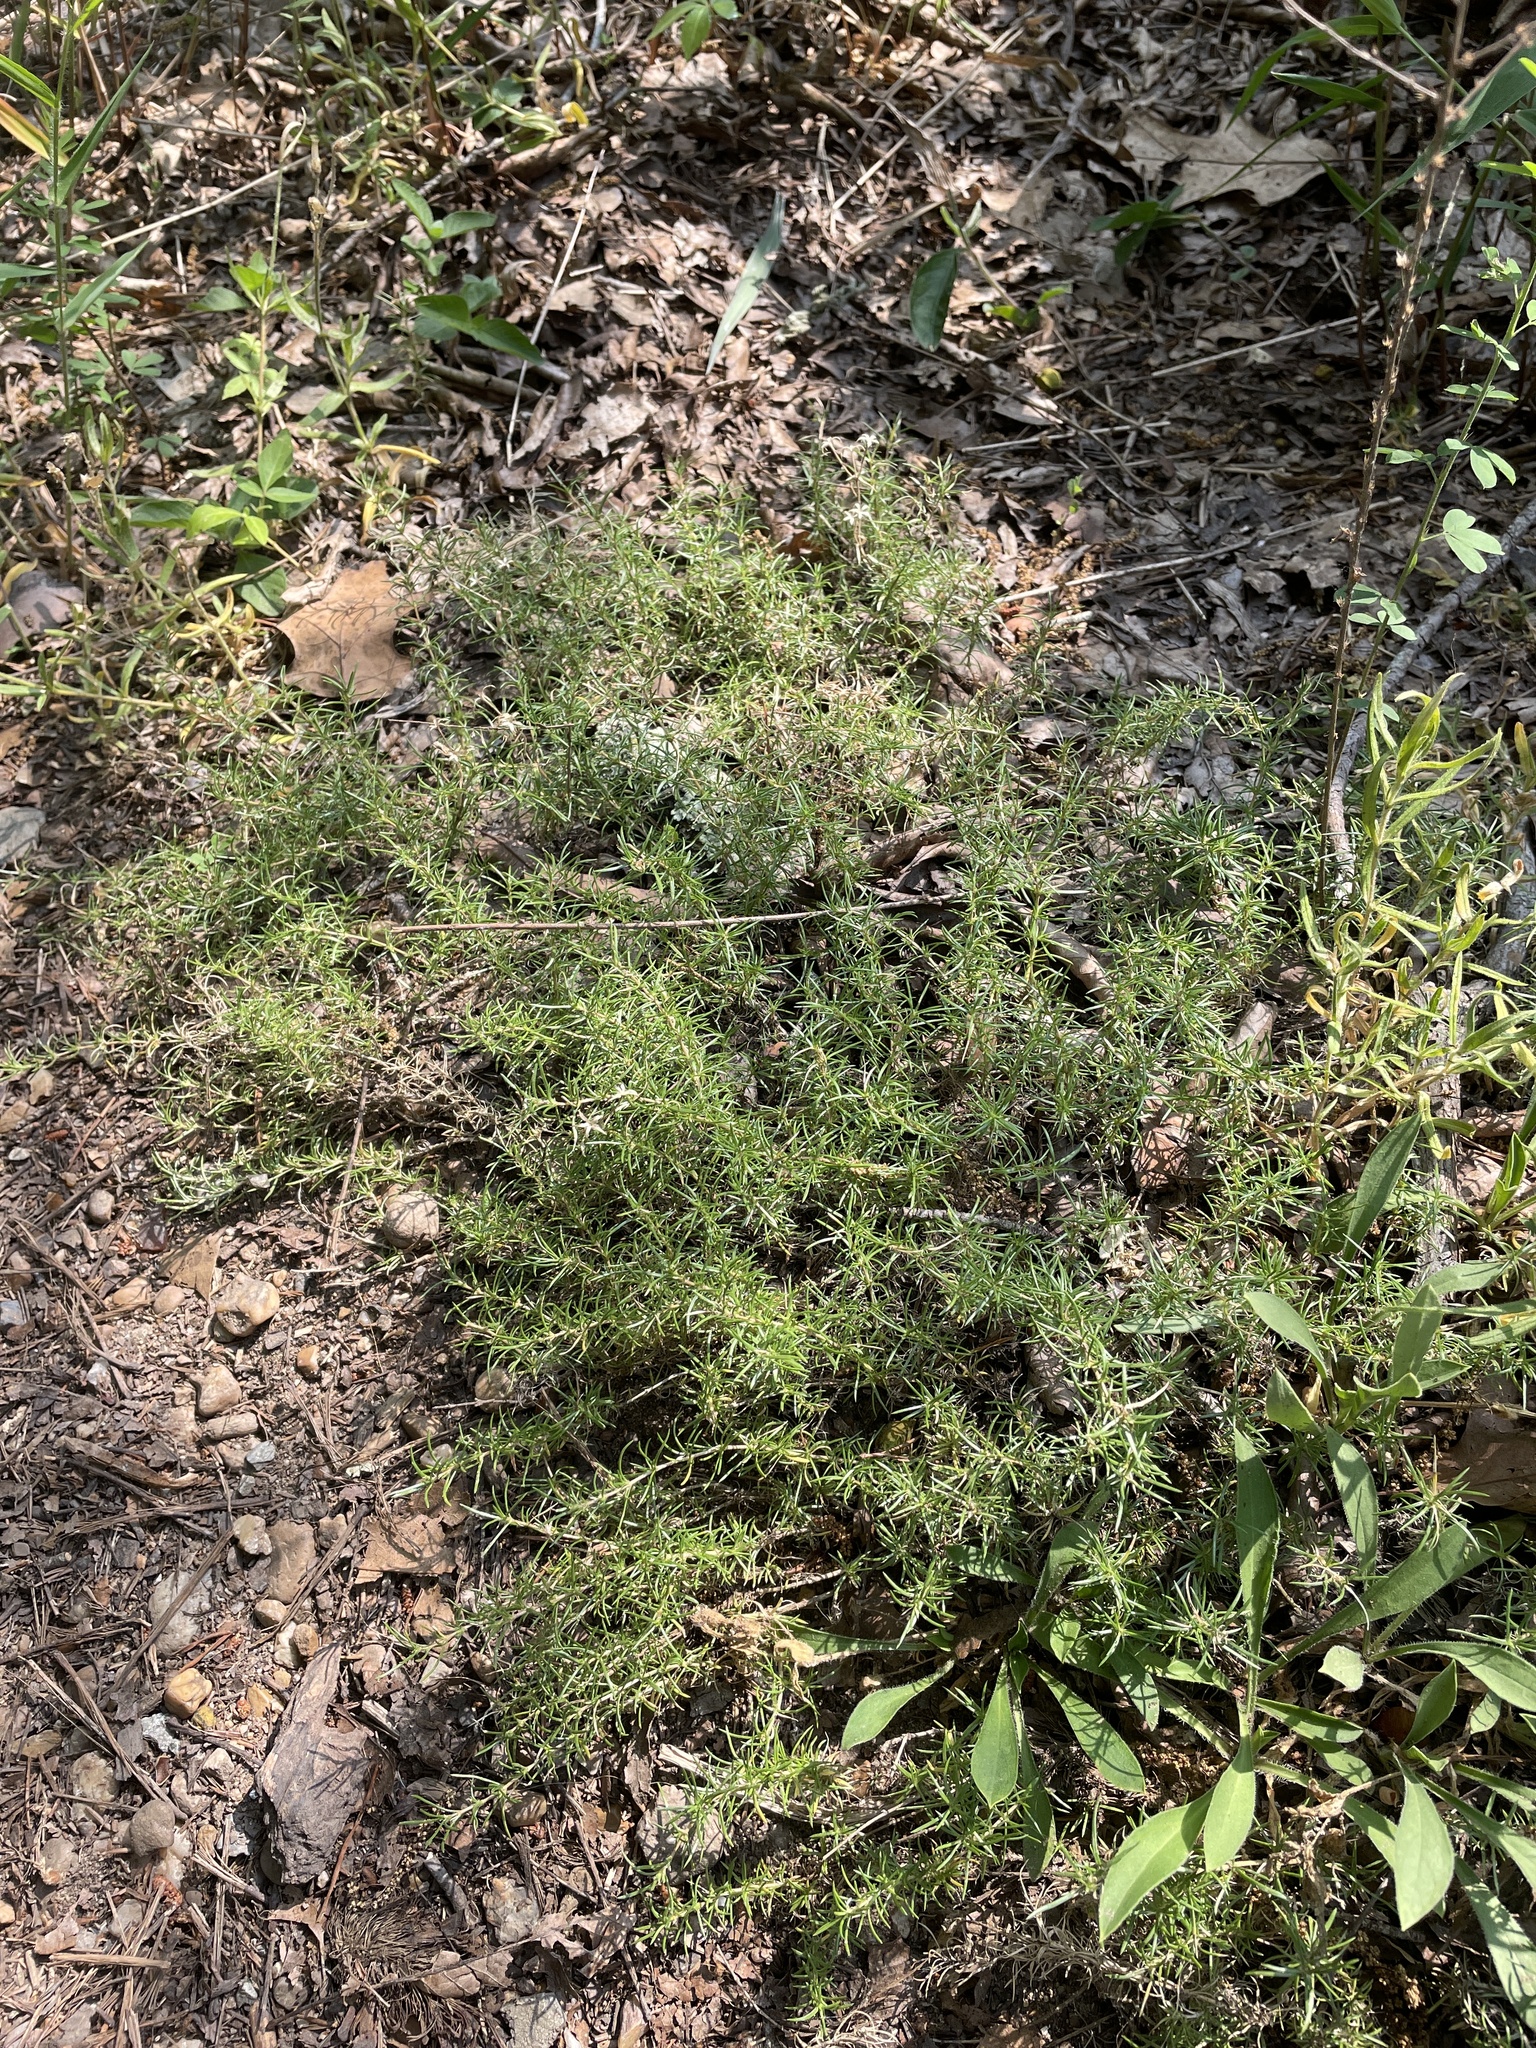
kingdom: Plantae
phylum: Tracheophyta
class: Magnoliopsida
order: Ericales
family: Polemoniaceae
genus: Phlox
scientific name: Phlox subulata
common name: Moss phlox
